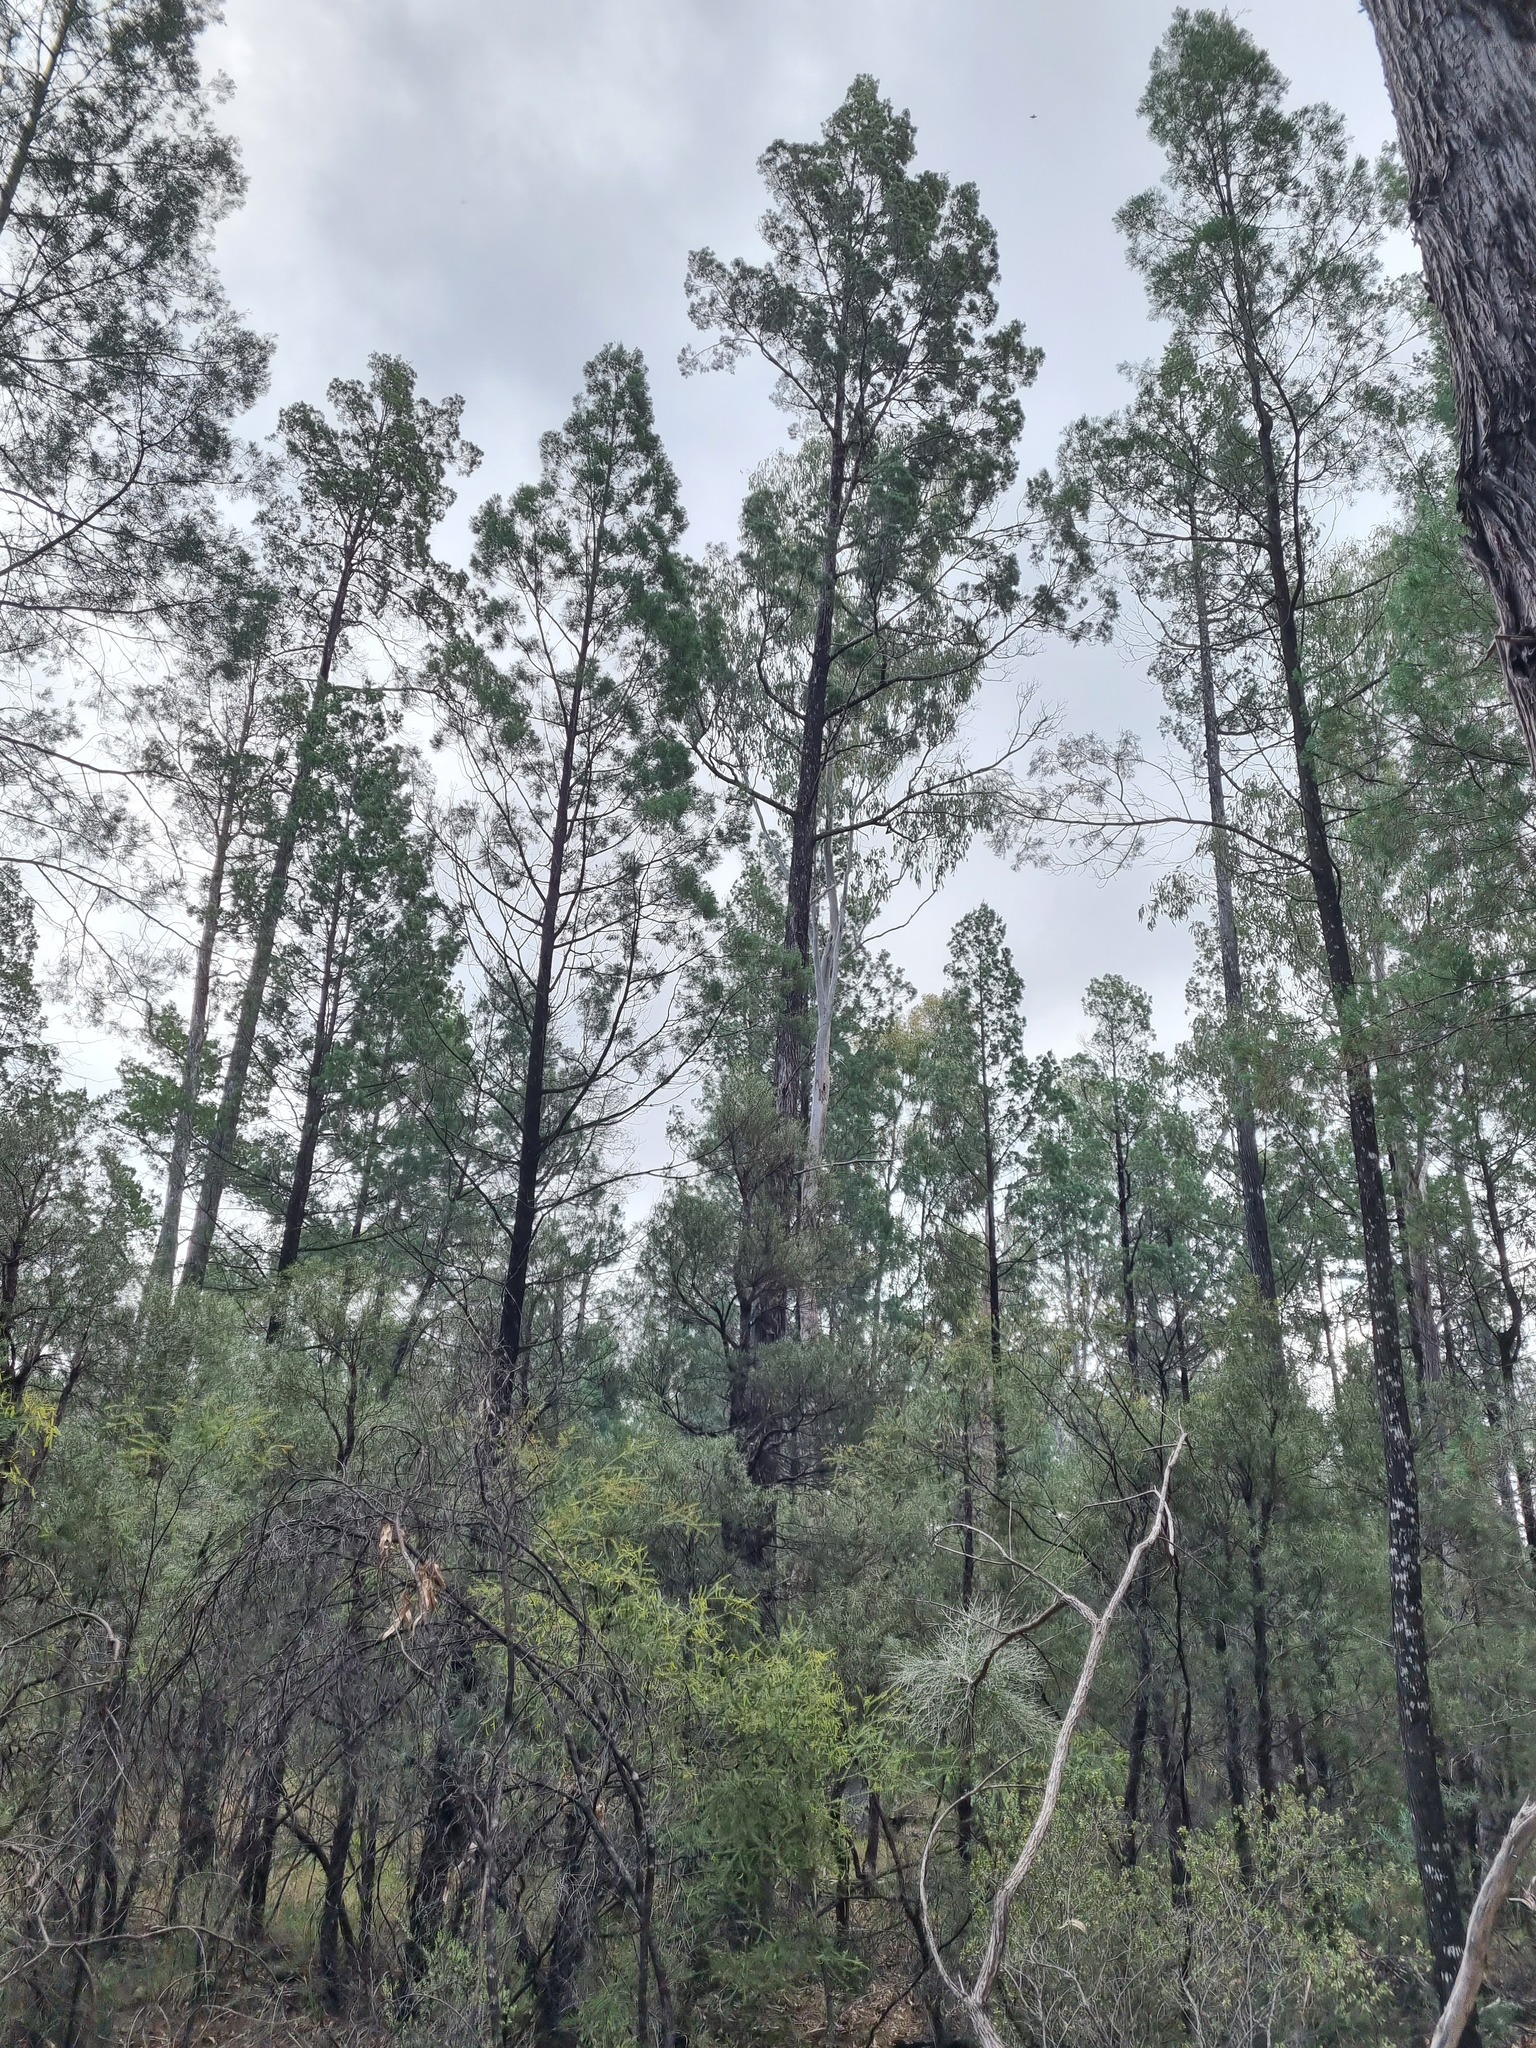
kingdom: Plantae
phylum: Tracheophyta
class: Pinopsida
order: Pinales
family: Cupressaceae
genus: Callitris
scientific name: Callitris columellaris
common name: White cypress-pine
